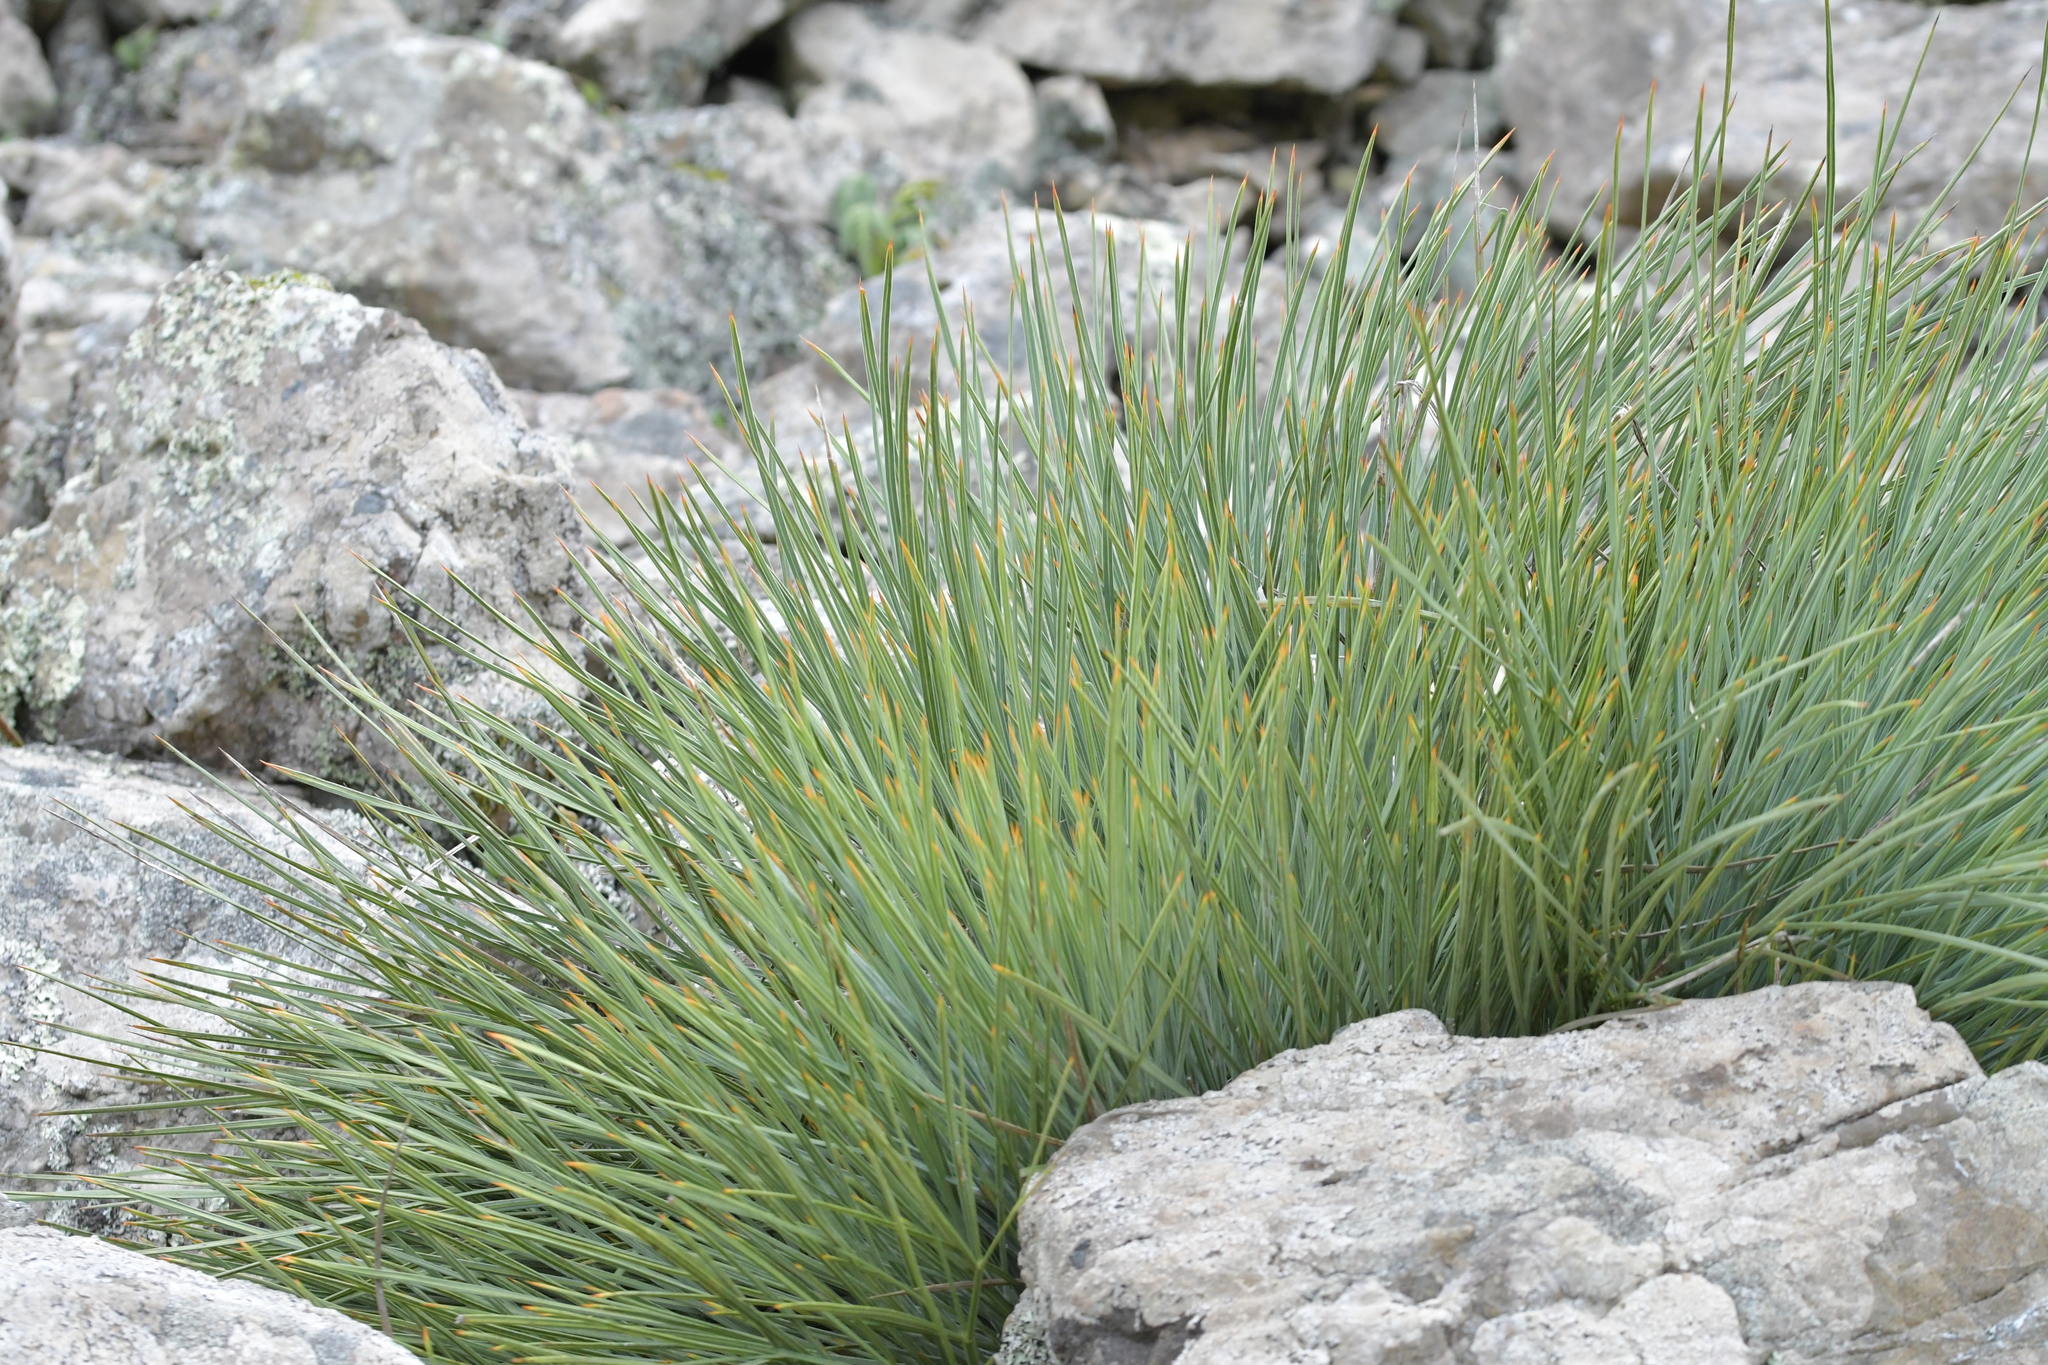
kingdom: Plantae
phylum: Tracheophyta
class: Magnoliopsida
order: Apiales
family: Apiaceae
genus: Aciphylla
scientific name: Aciphylla squarrosa
